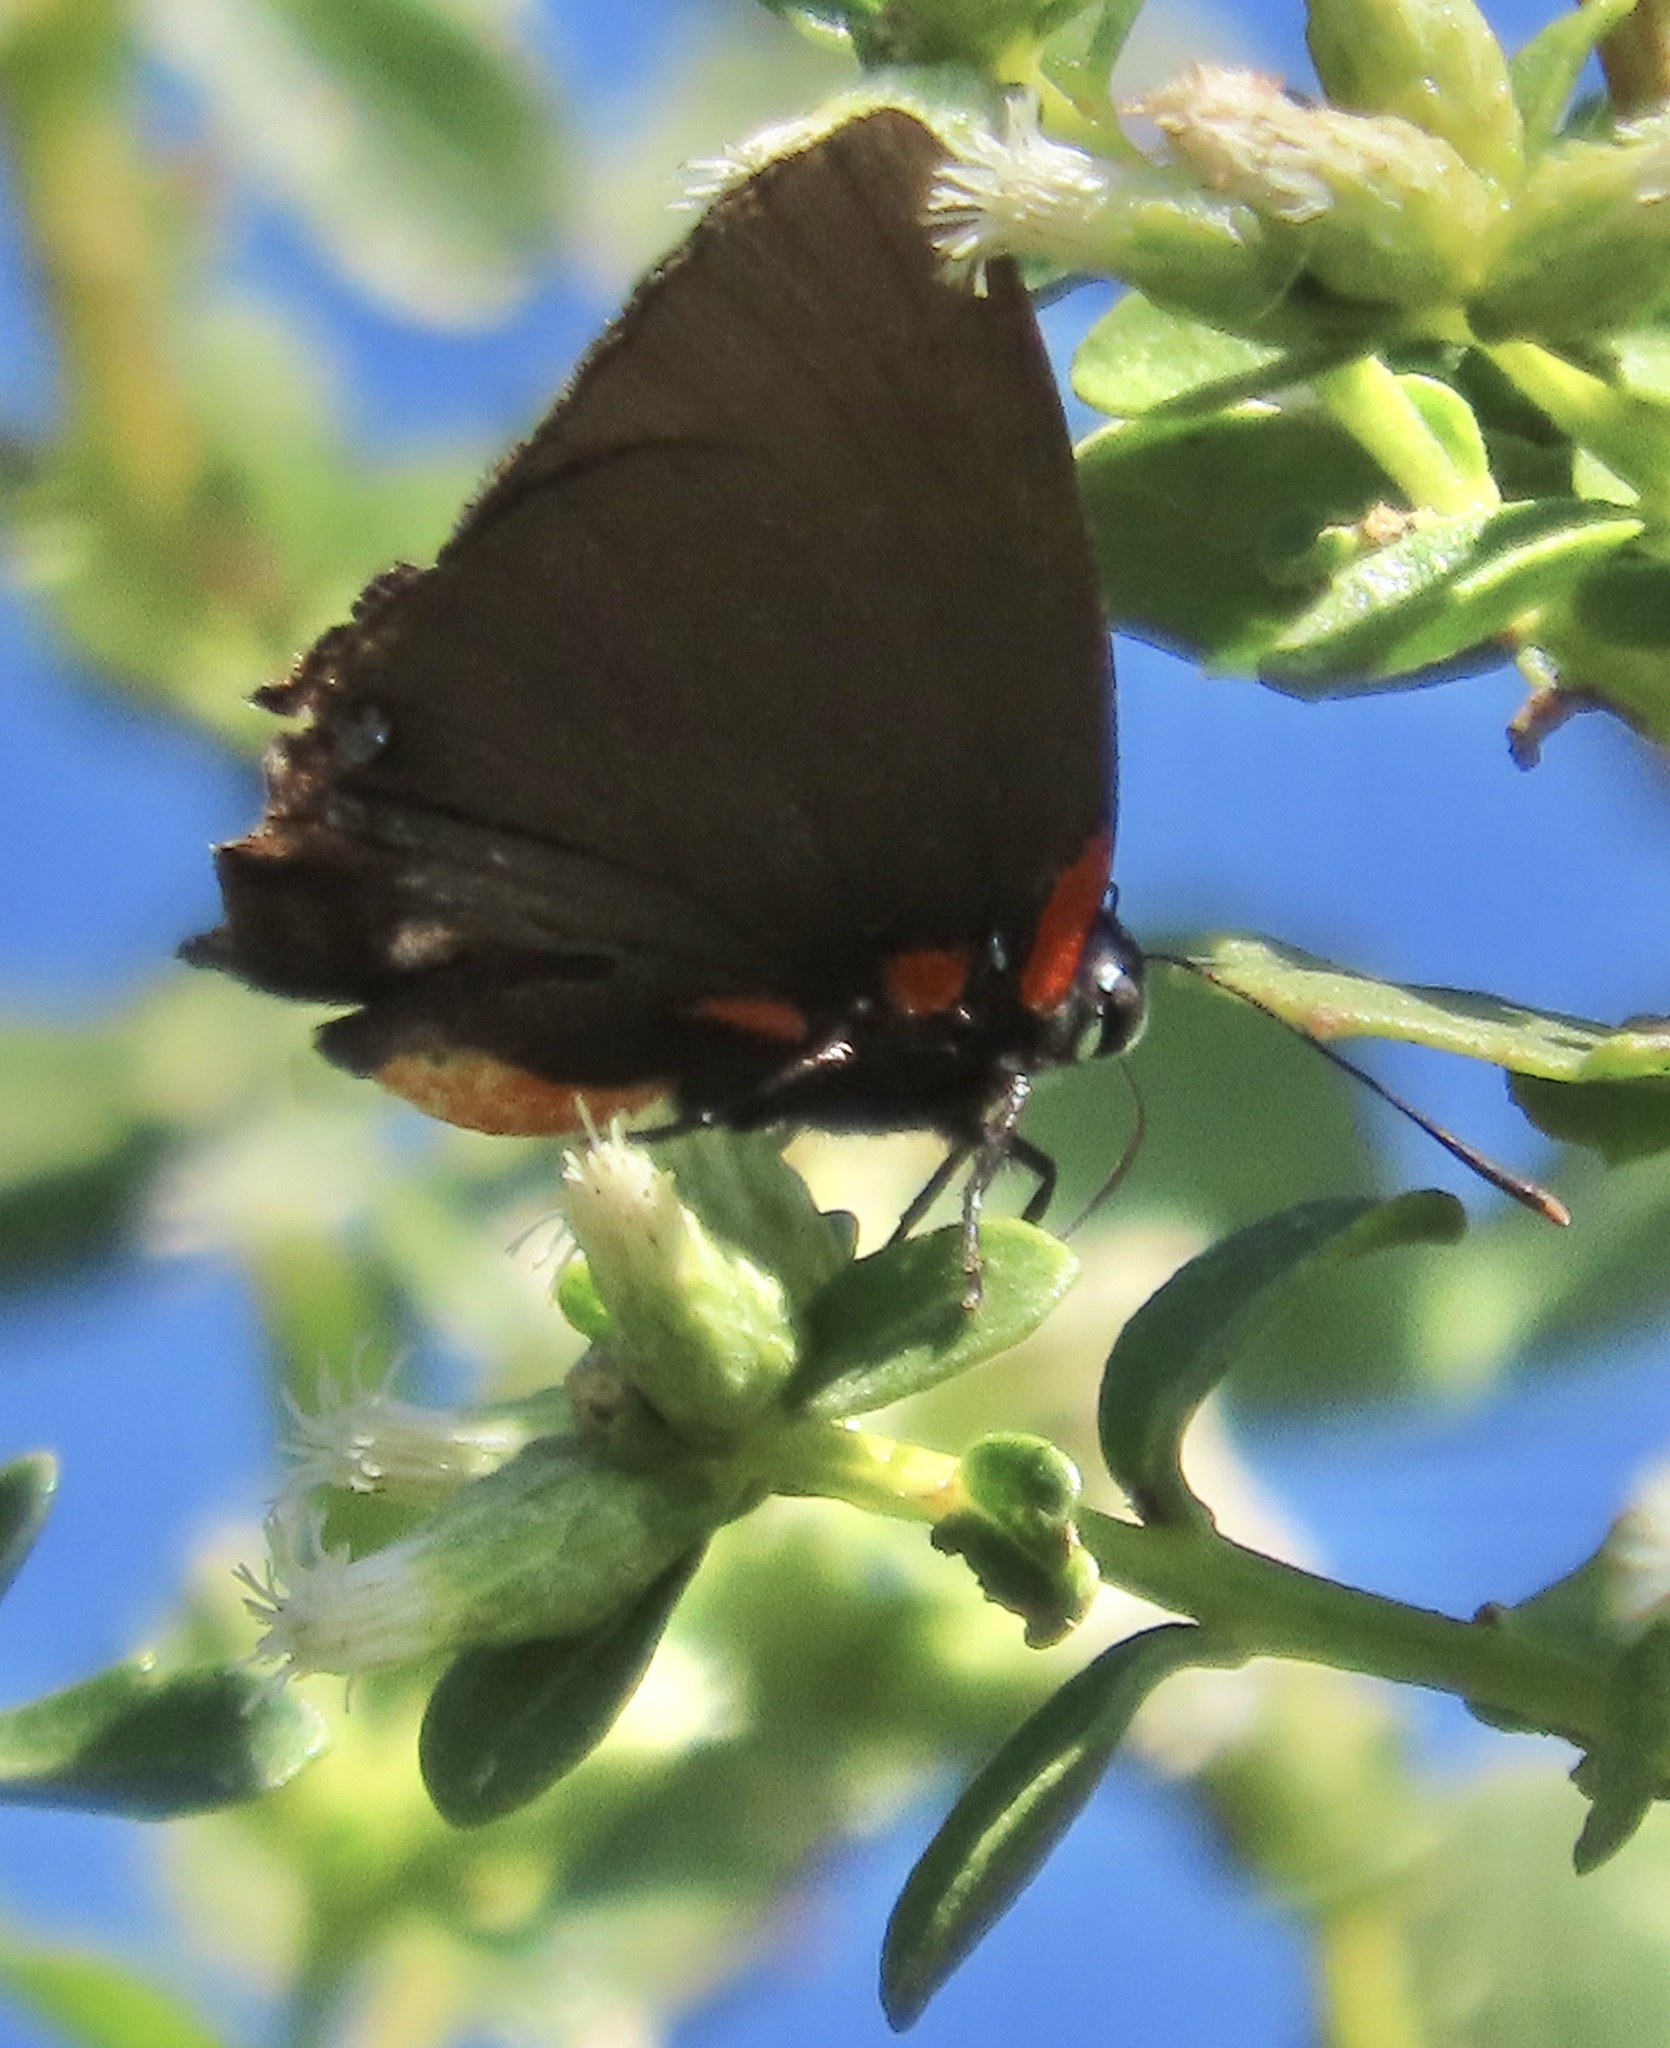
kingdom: Animalia
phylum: Arthropoda
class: Insecta
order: Lepidoptera
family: Lycaenidae
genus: Atlides
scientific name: Atlides halesus
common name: Great purple hairstreak
